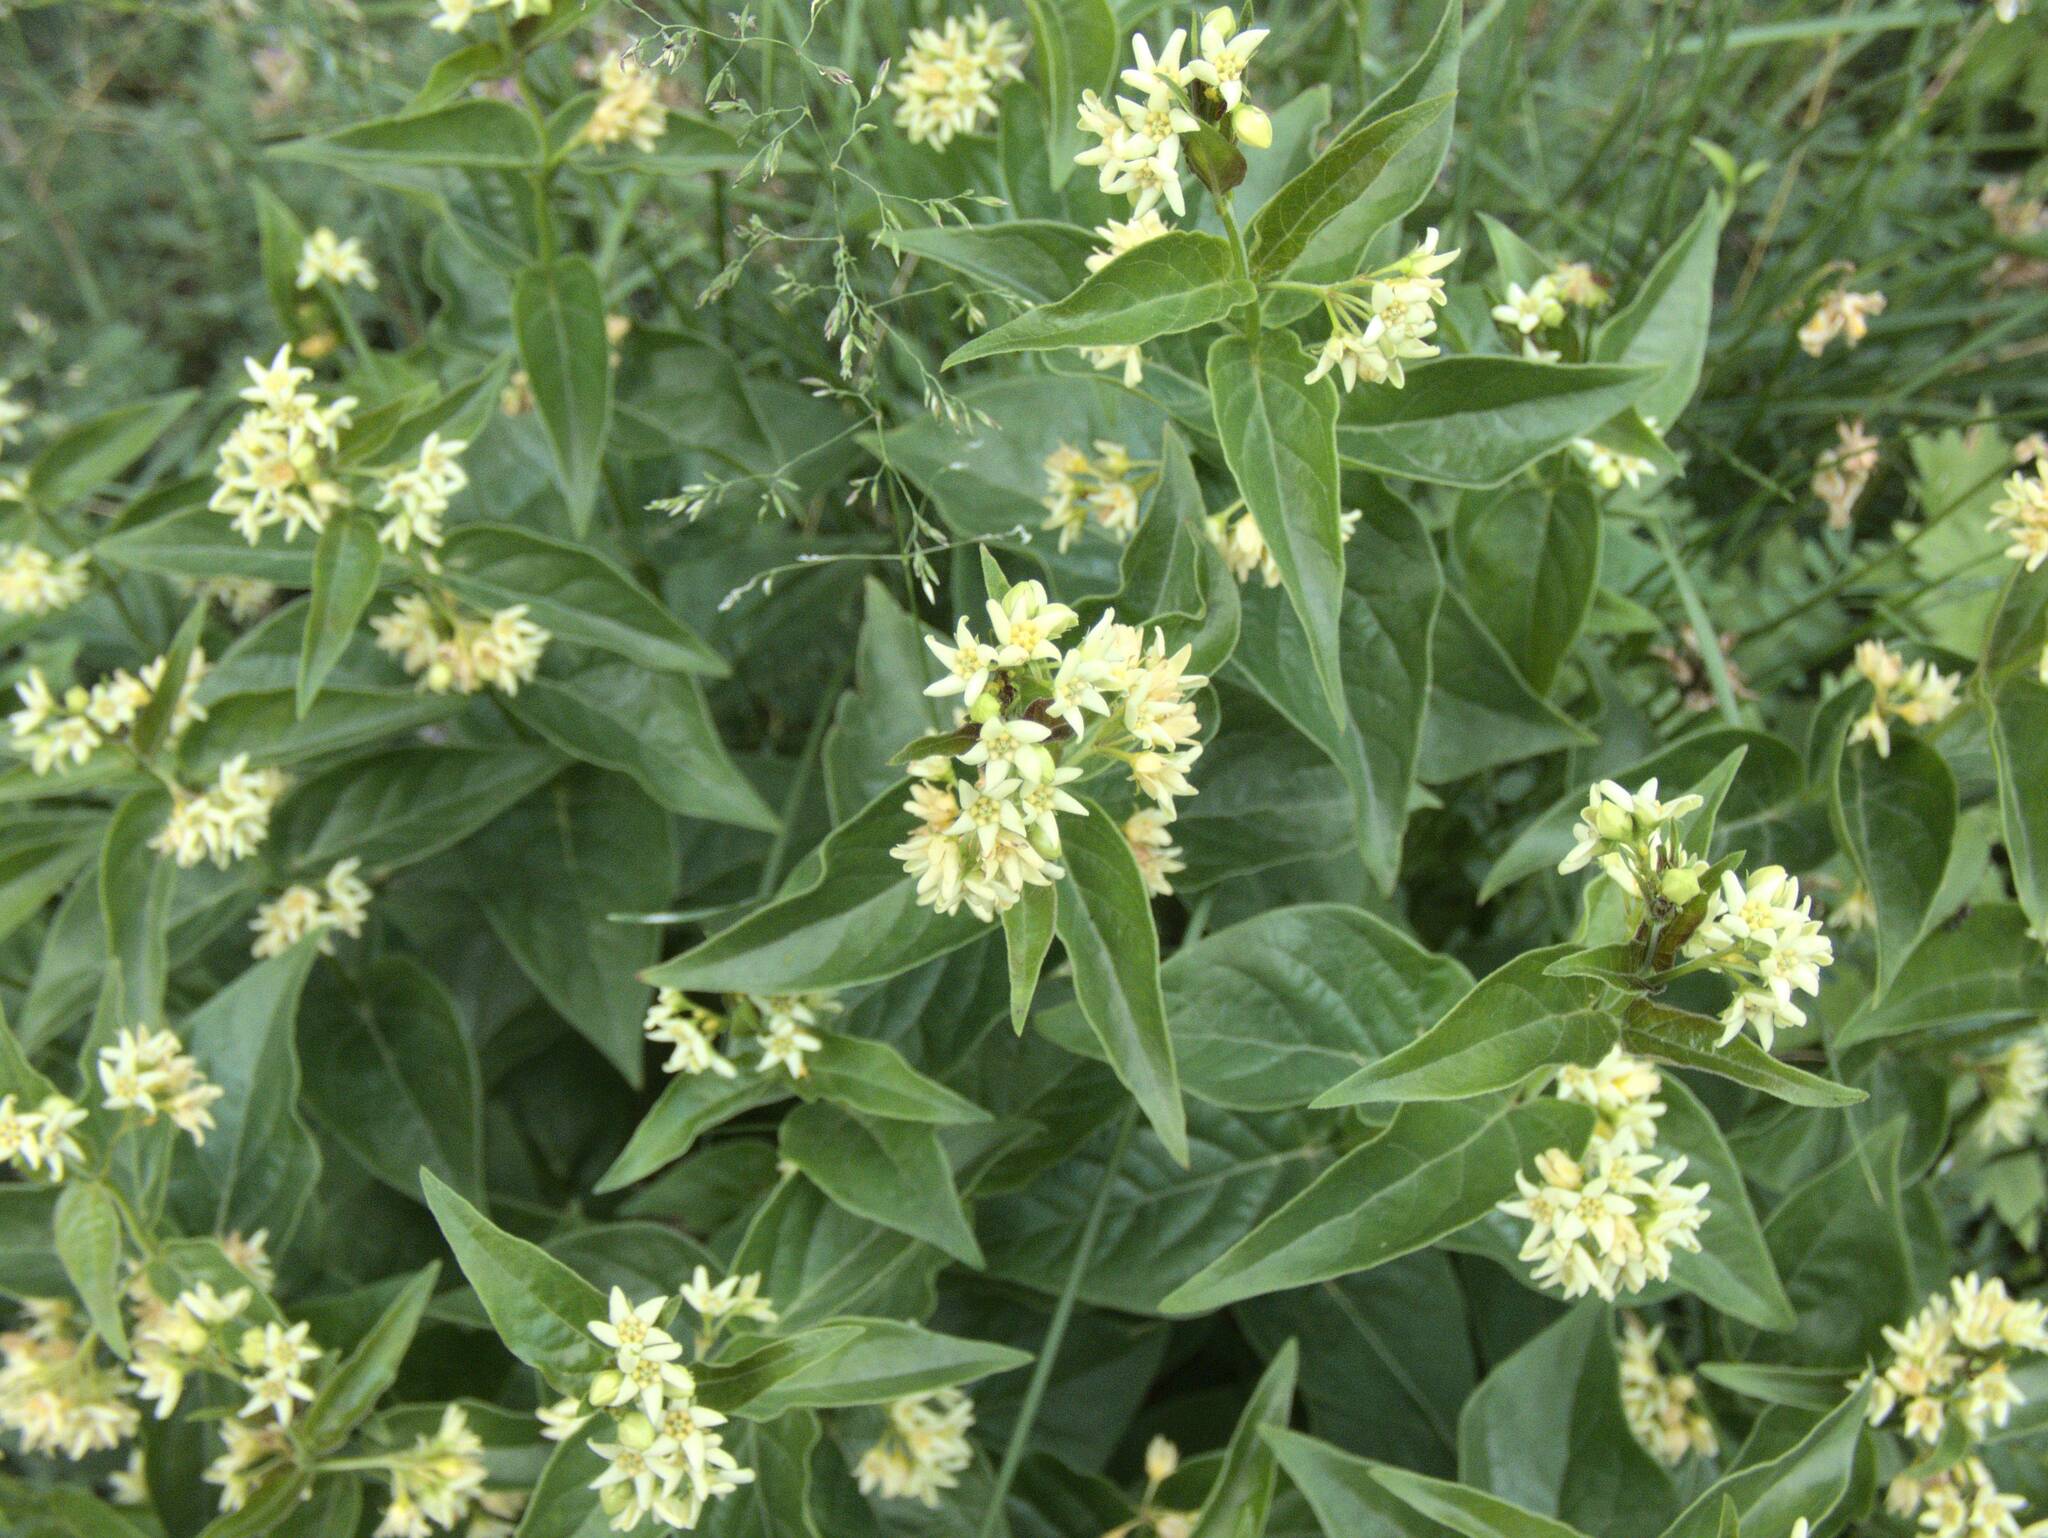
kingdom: Plantae
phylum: Tracheophyta
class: Magnoliopsida
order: Gentianales
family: Apocynaceae
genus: Vincetoxicum
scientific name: Vincetoxicum hirundinaria
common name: White swallowwort
